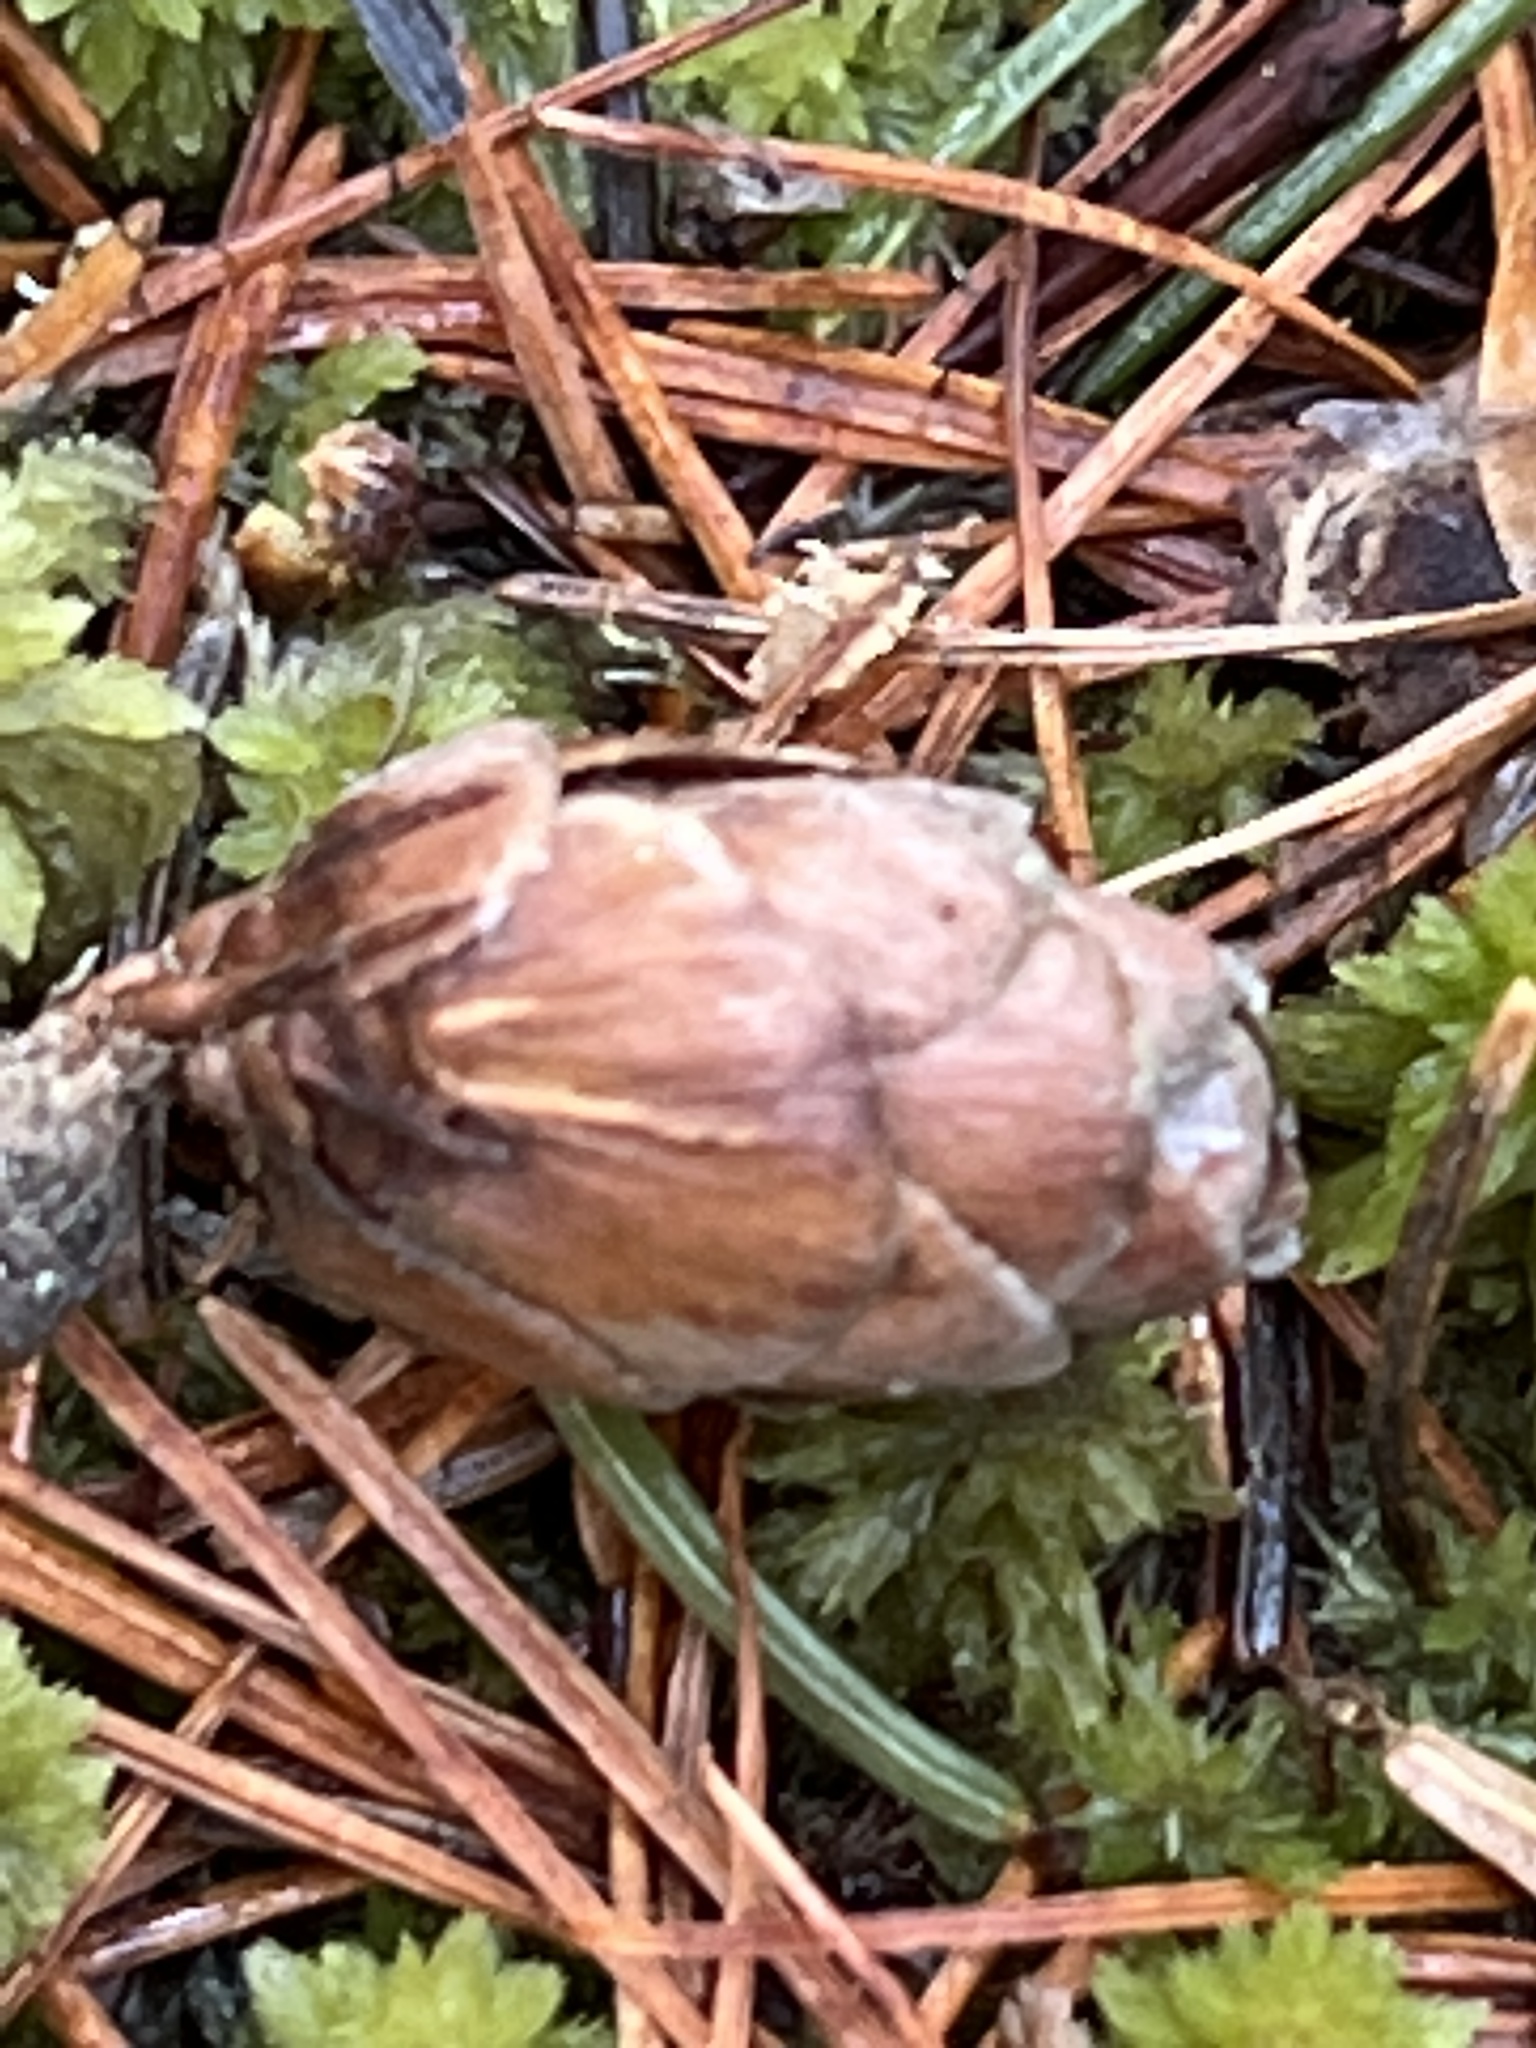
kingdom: Plantae
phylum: Tracheophyta
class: Pinopsida
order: Pinales
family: Pinaceae
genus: Larix
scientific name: Larix laricina
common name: American larch
